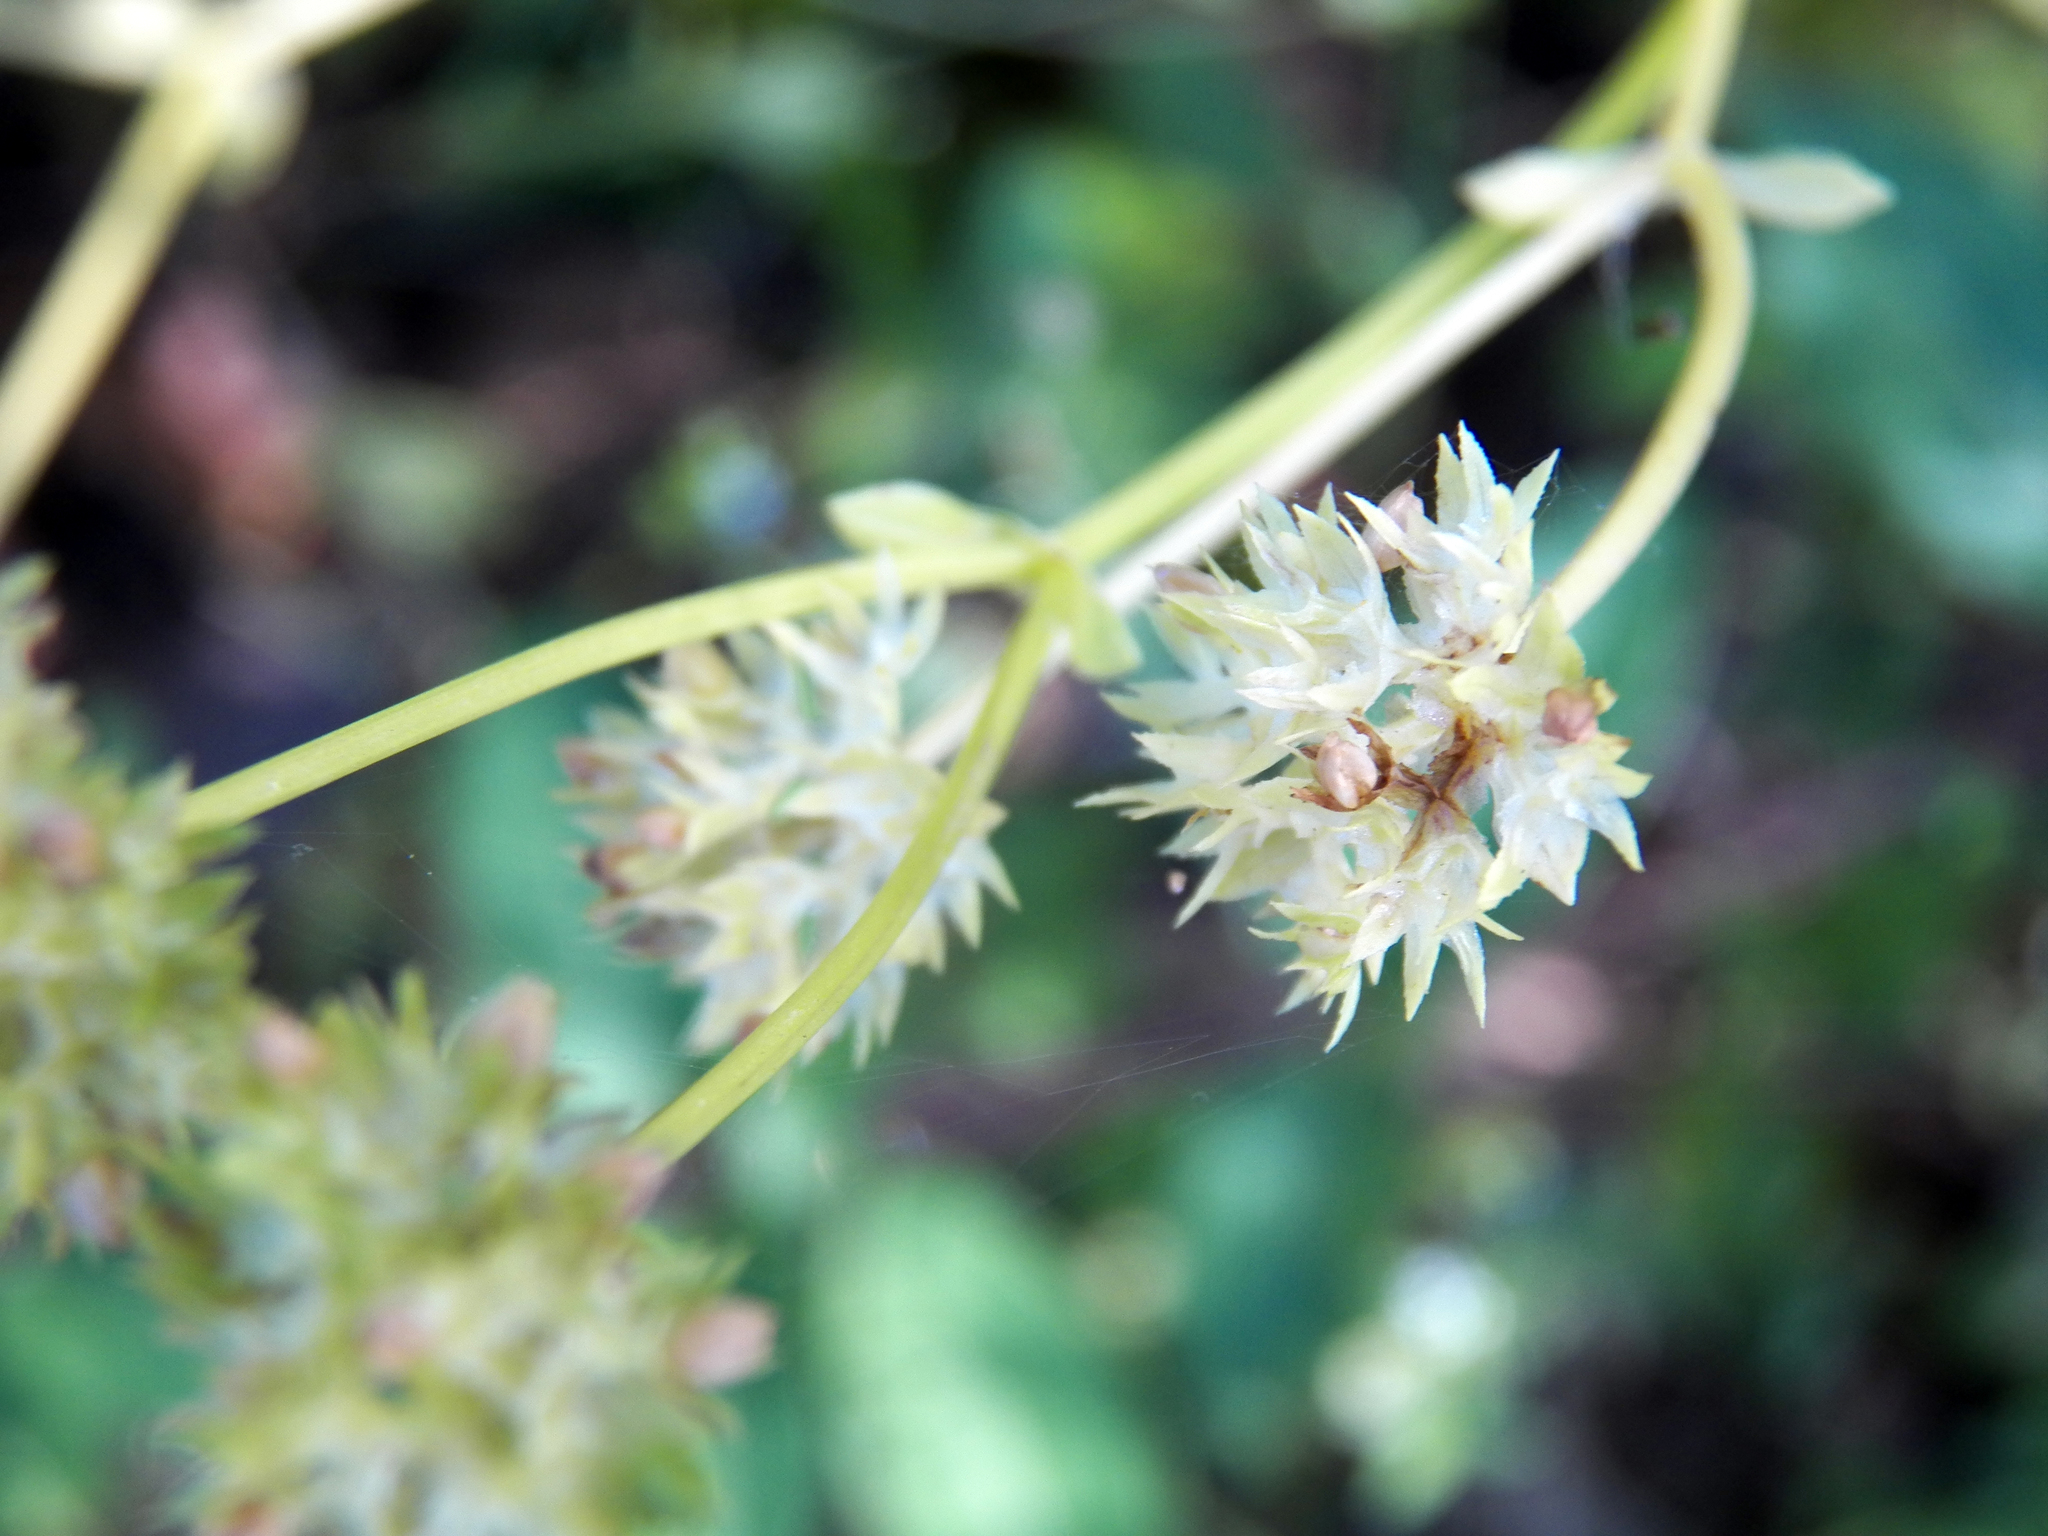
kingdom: Plantae
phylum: Tracheophyta
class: Magnoliopsida
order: Saxifragales
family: Penthoraceae
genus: Penthorum
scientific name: Penthorum sedoides
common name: Ditch stonecrop
